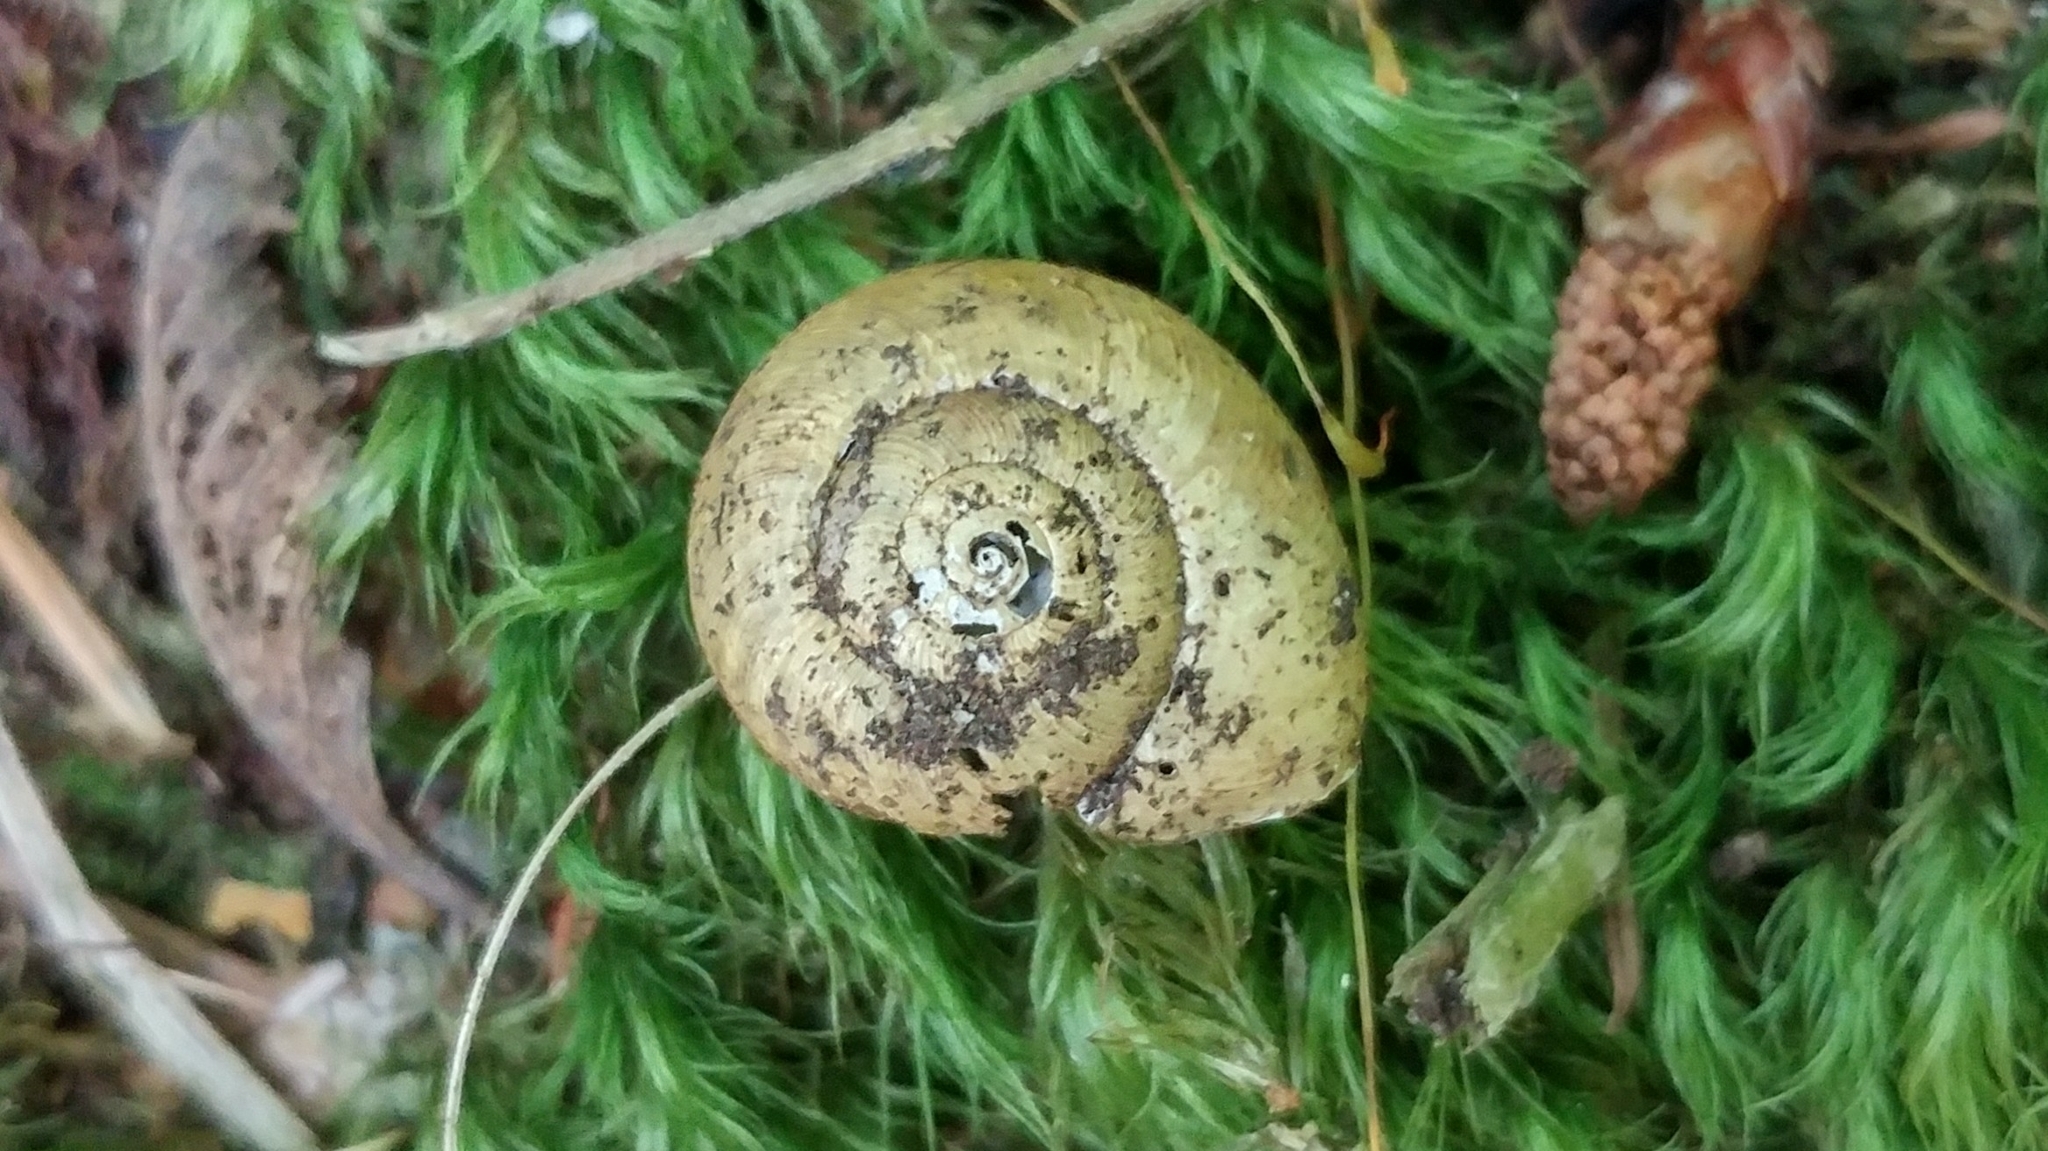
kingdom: Animalia
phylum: Mollusca
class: Gastropoda
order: Stylommatophora
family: Haplotrematidae
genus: Ancotrema
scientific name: Ancotrema sportella
